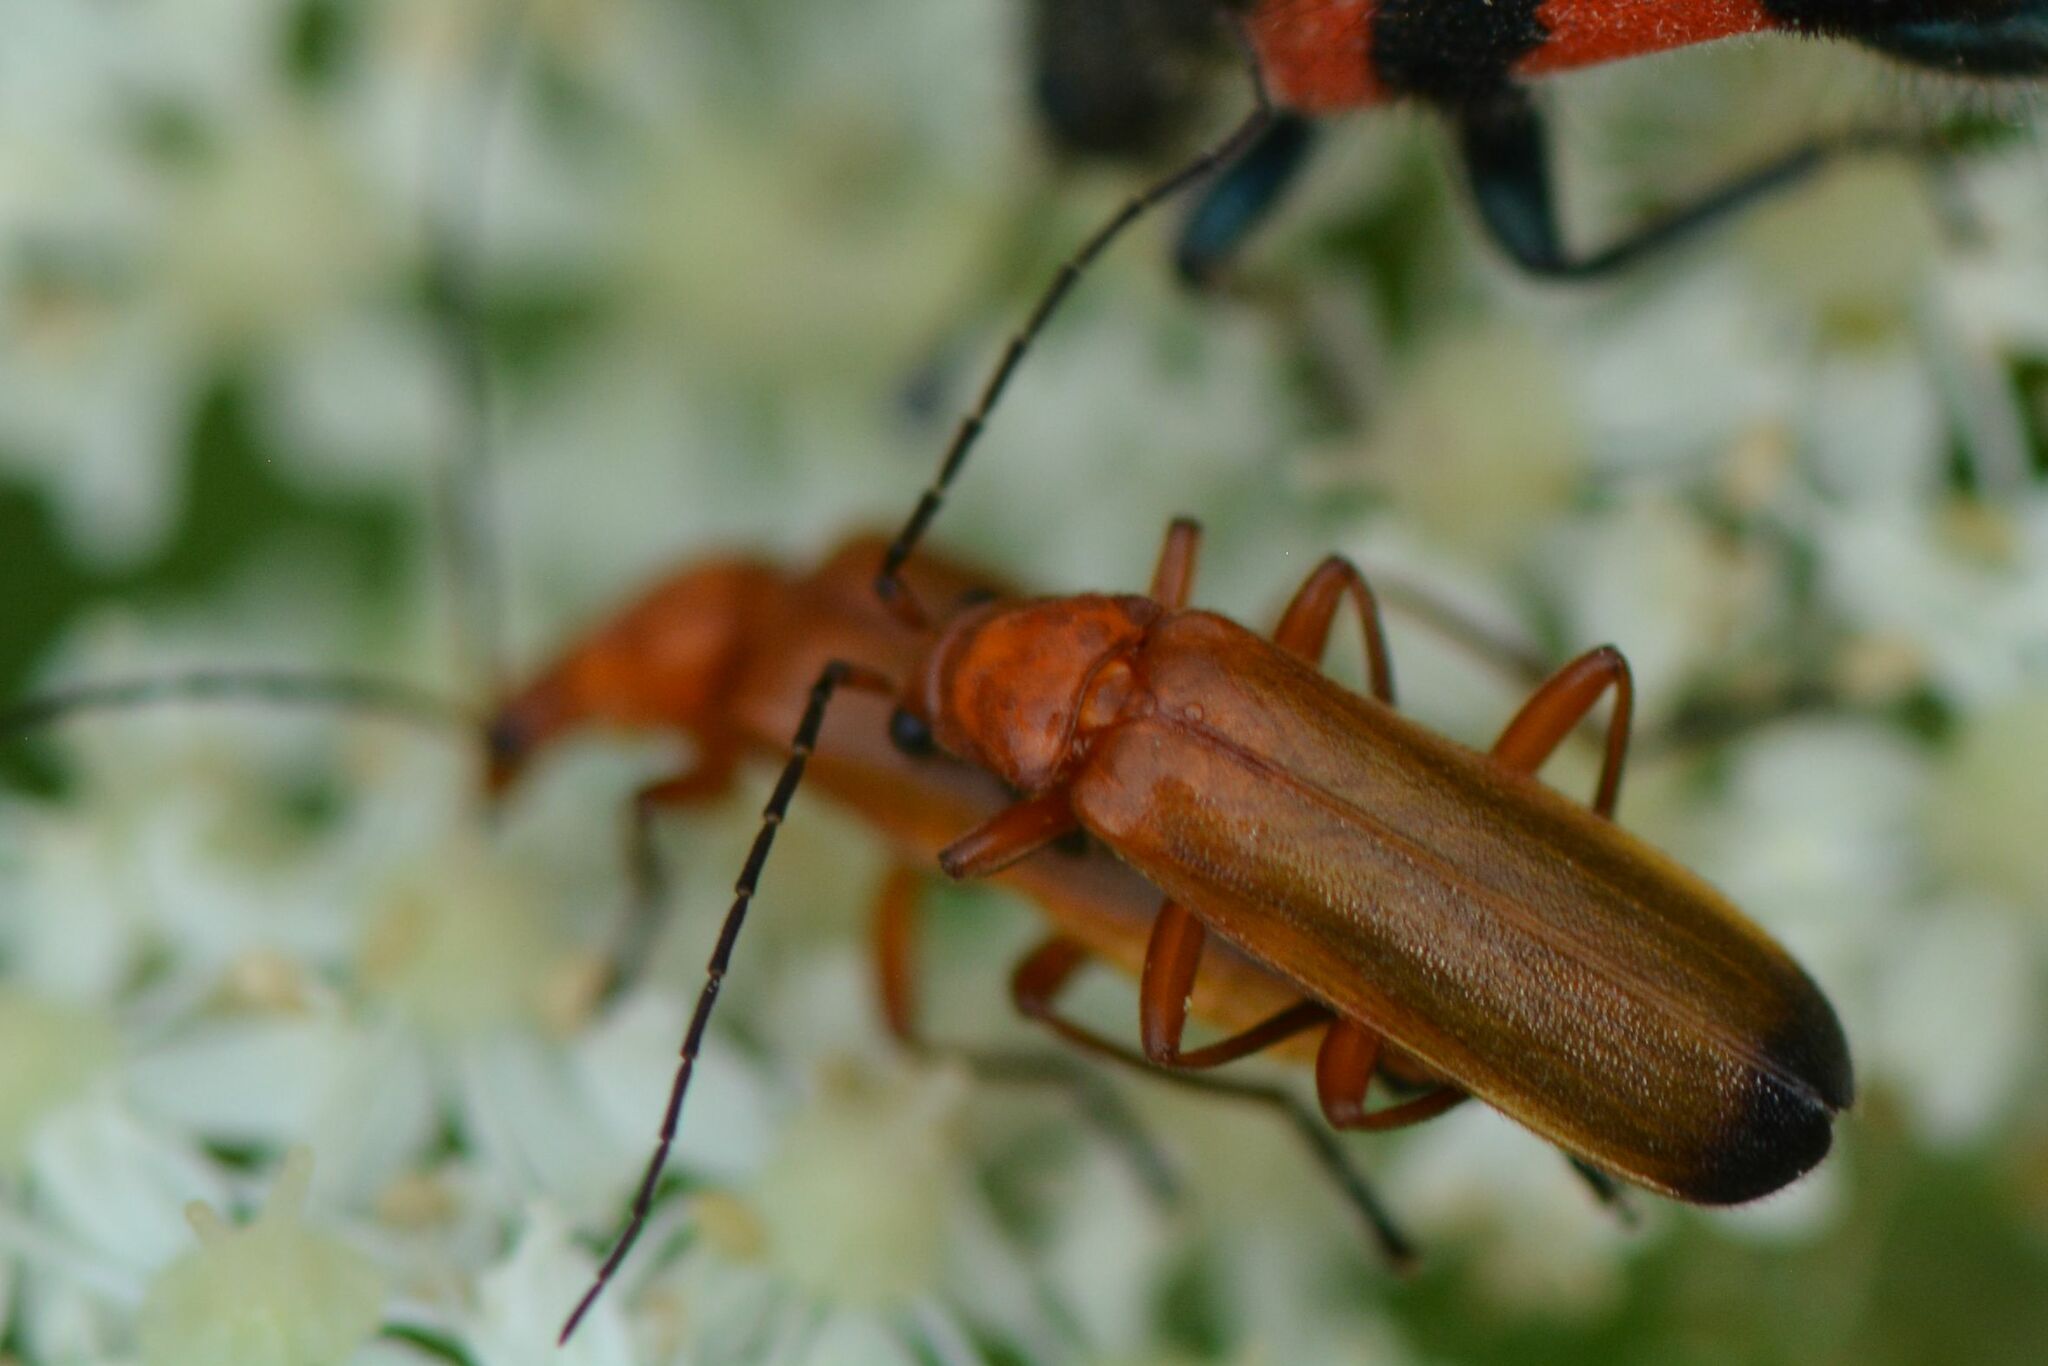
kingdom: Animalia
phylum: Arthropoda
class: Insecta
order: Coleoptera
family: Cantharidae
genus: Rhagonycha
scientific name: Rhagonycha fulva
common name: Common red soldier beetle
